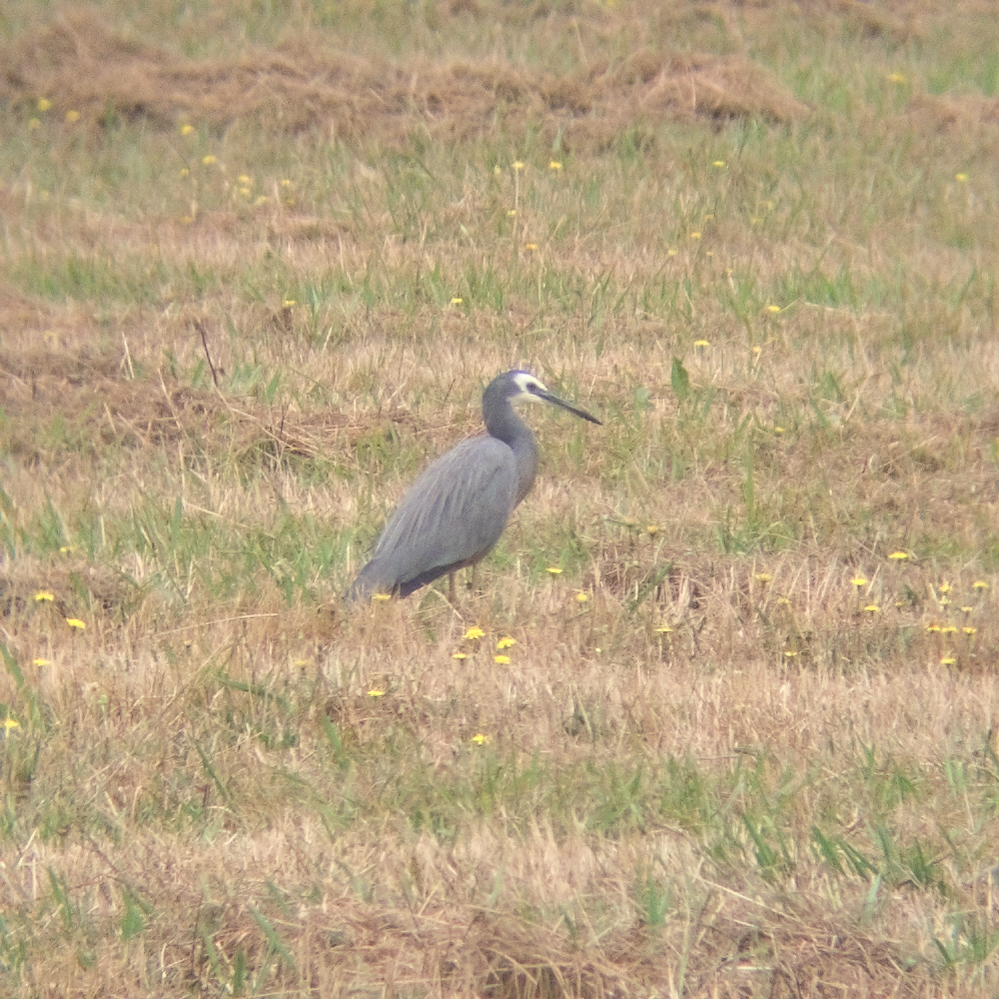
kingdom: Animalia
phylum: Chordata
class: Aves
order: Pelecaniformes
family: Ardeidae
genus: Egretta
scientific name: Egretta novaehollandiae
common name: White-faced heron
